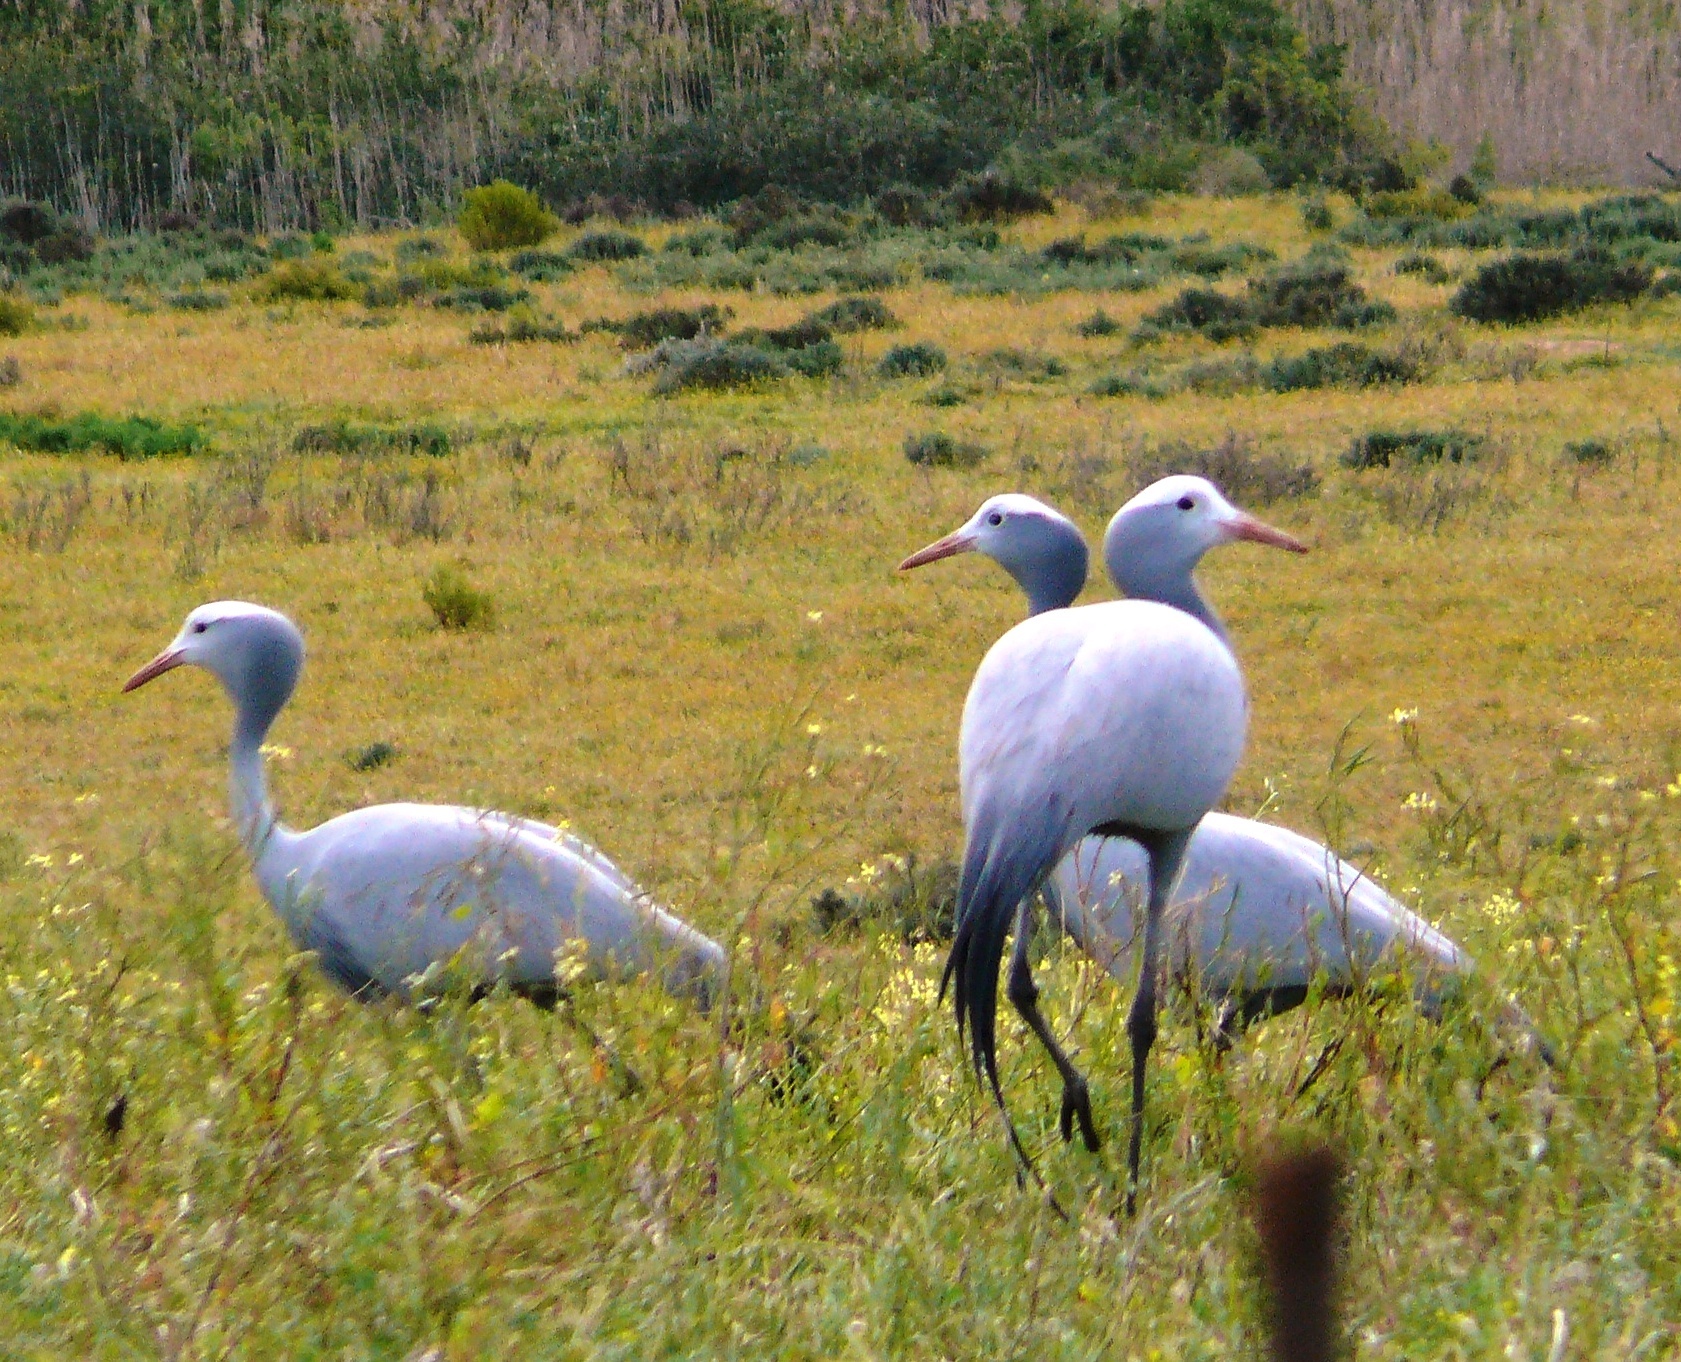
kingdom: Animalia
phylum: Chordata
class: Aves
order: Gruiformes
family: Gruidae
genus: Anthropoides
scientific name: Anthropoides paradiseus
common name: Blue crane
